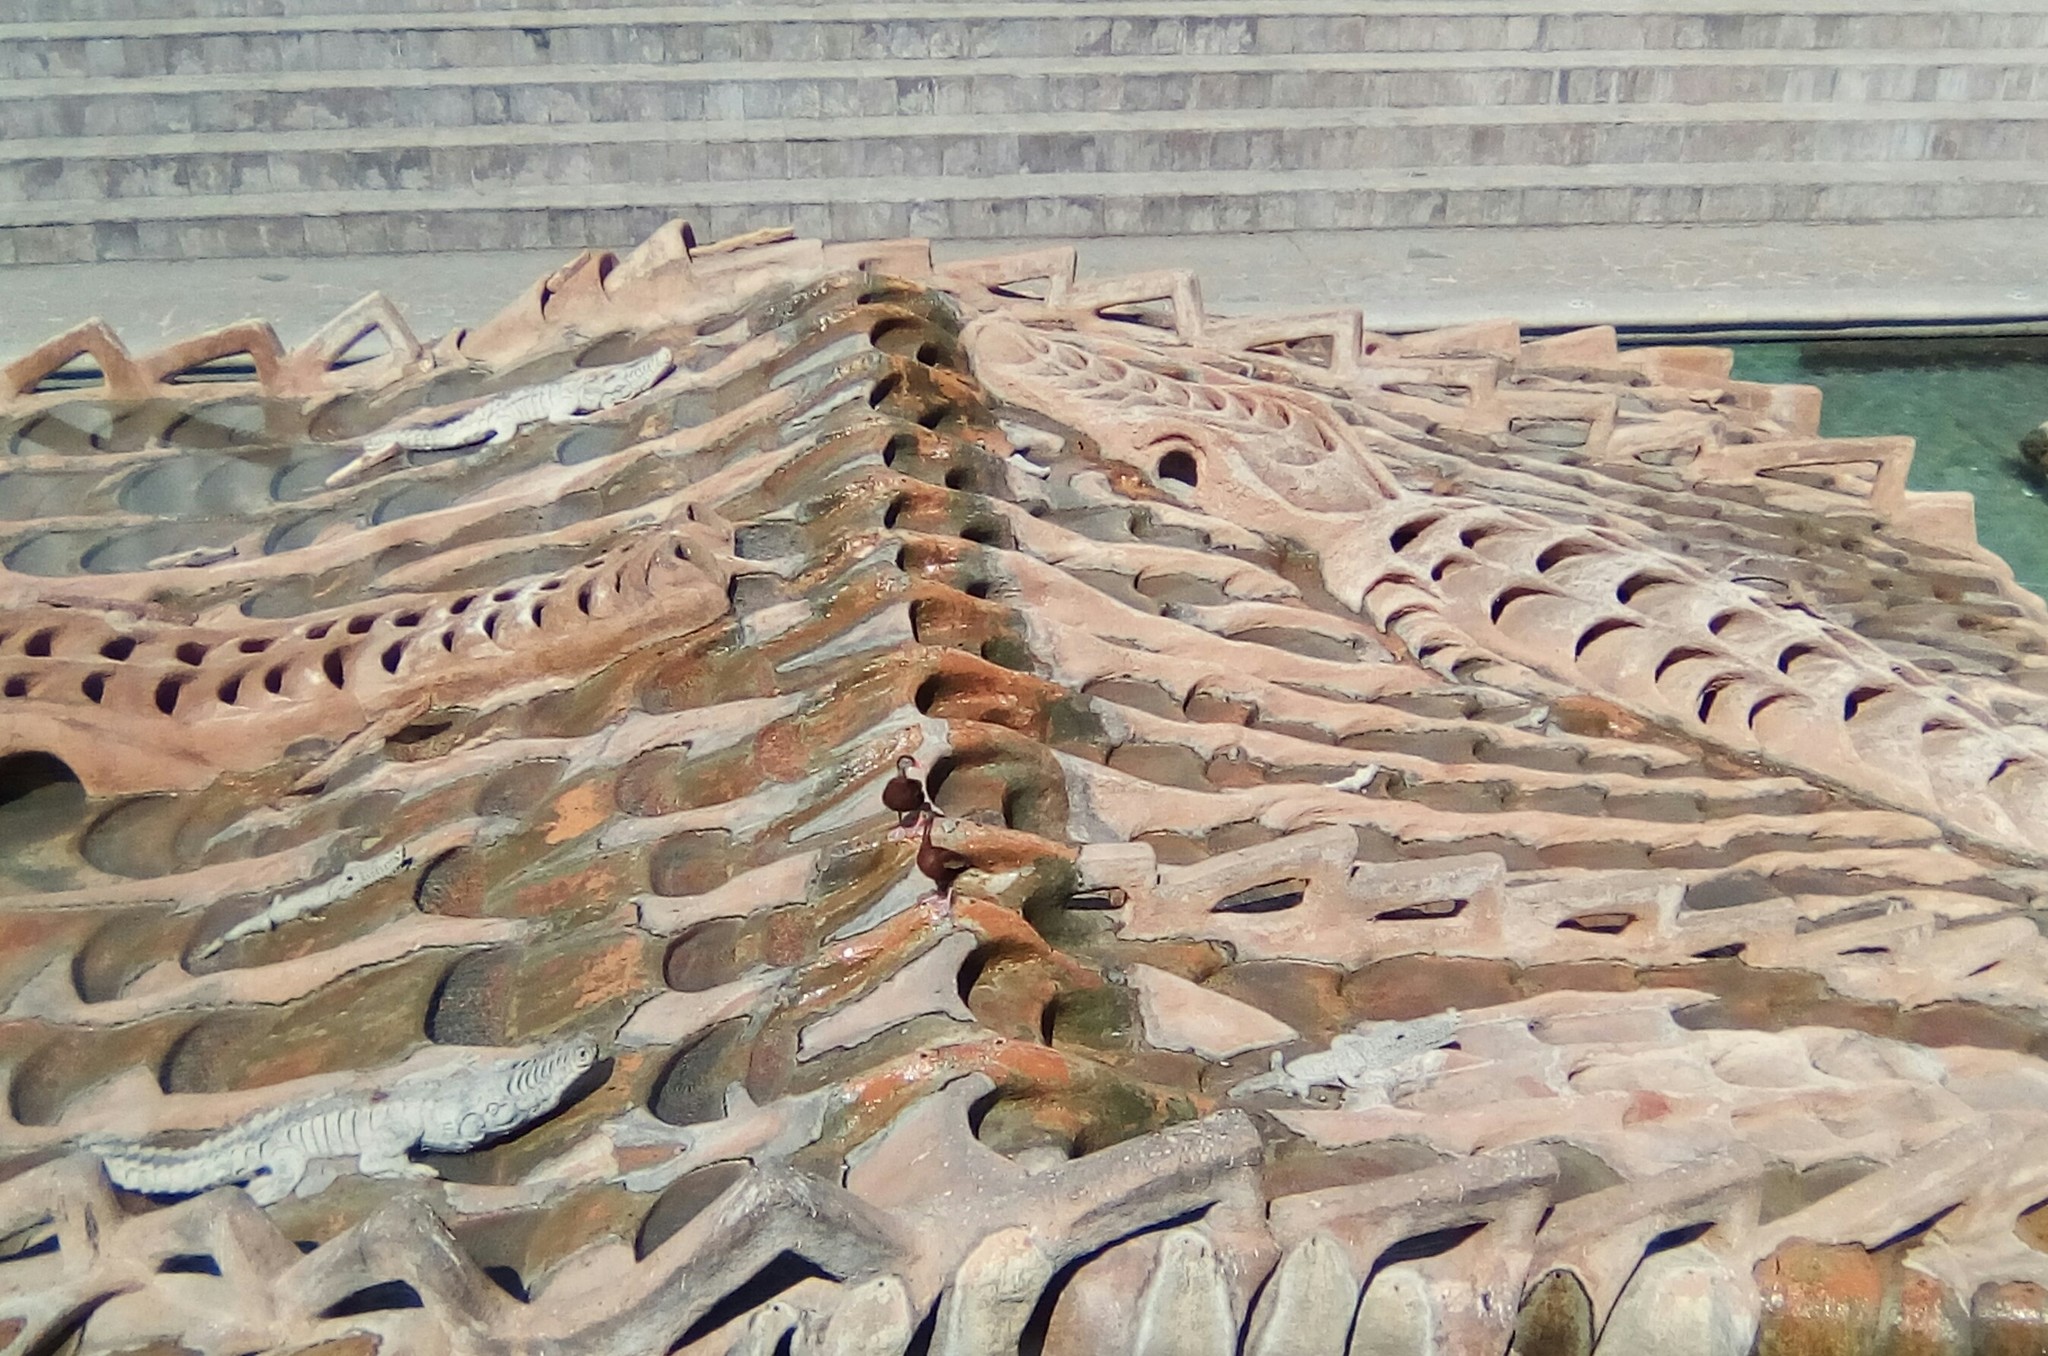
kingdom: Animalia
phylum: Chordata
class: Aves
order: Anseriformes
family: Anatidae
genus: Dendrocygna
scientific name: Dendrocygna autumnalis
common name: Black-bellied whistling duck
